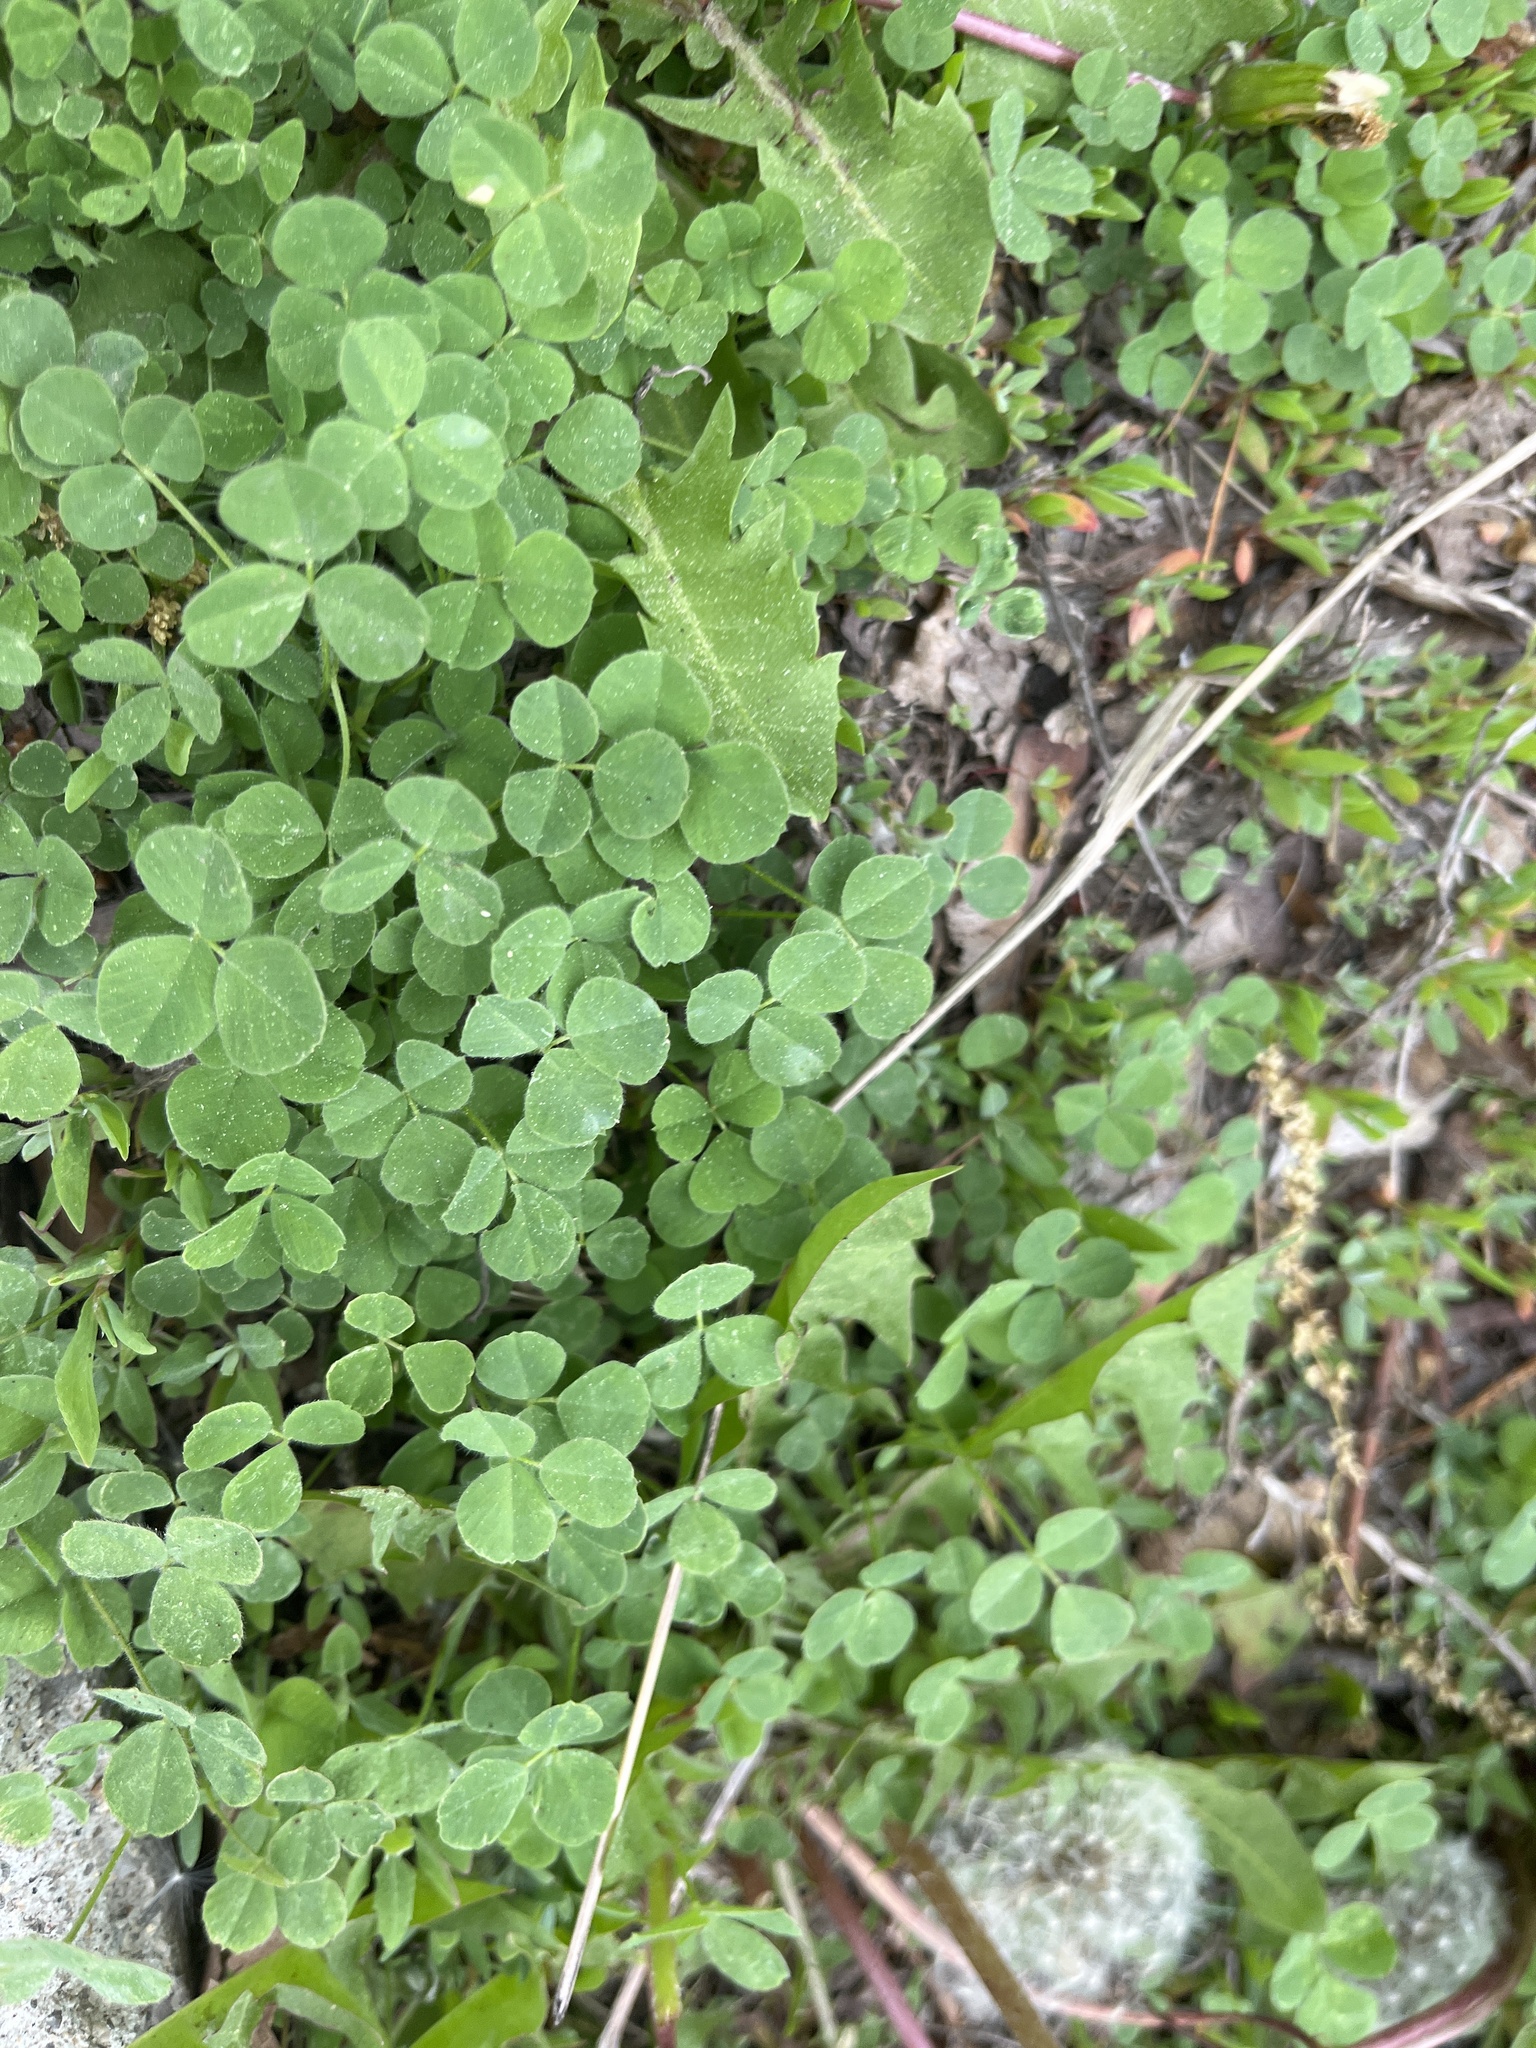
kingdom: Plantae
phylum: Tracheophyta
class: Magnoliopsida
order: Fabales
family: Fabaceae
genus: Medicago
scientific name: Medicago lupulina
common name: Black medick
